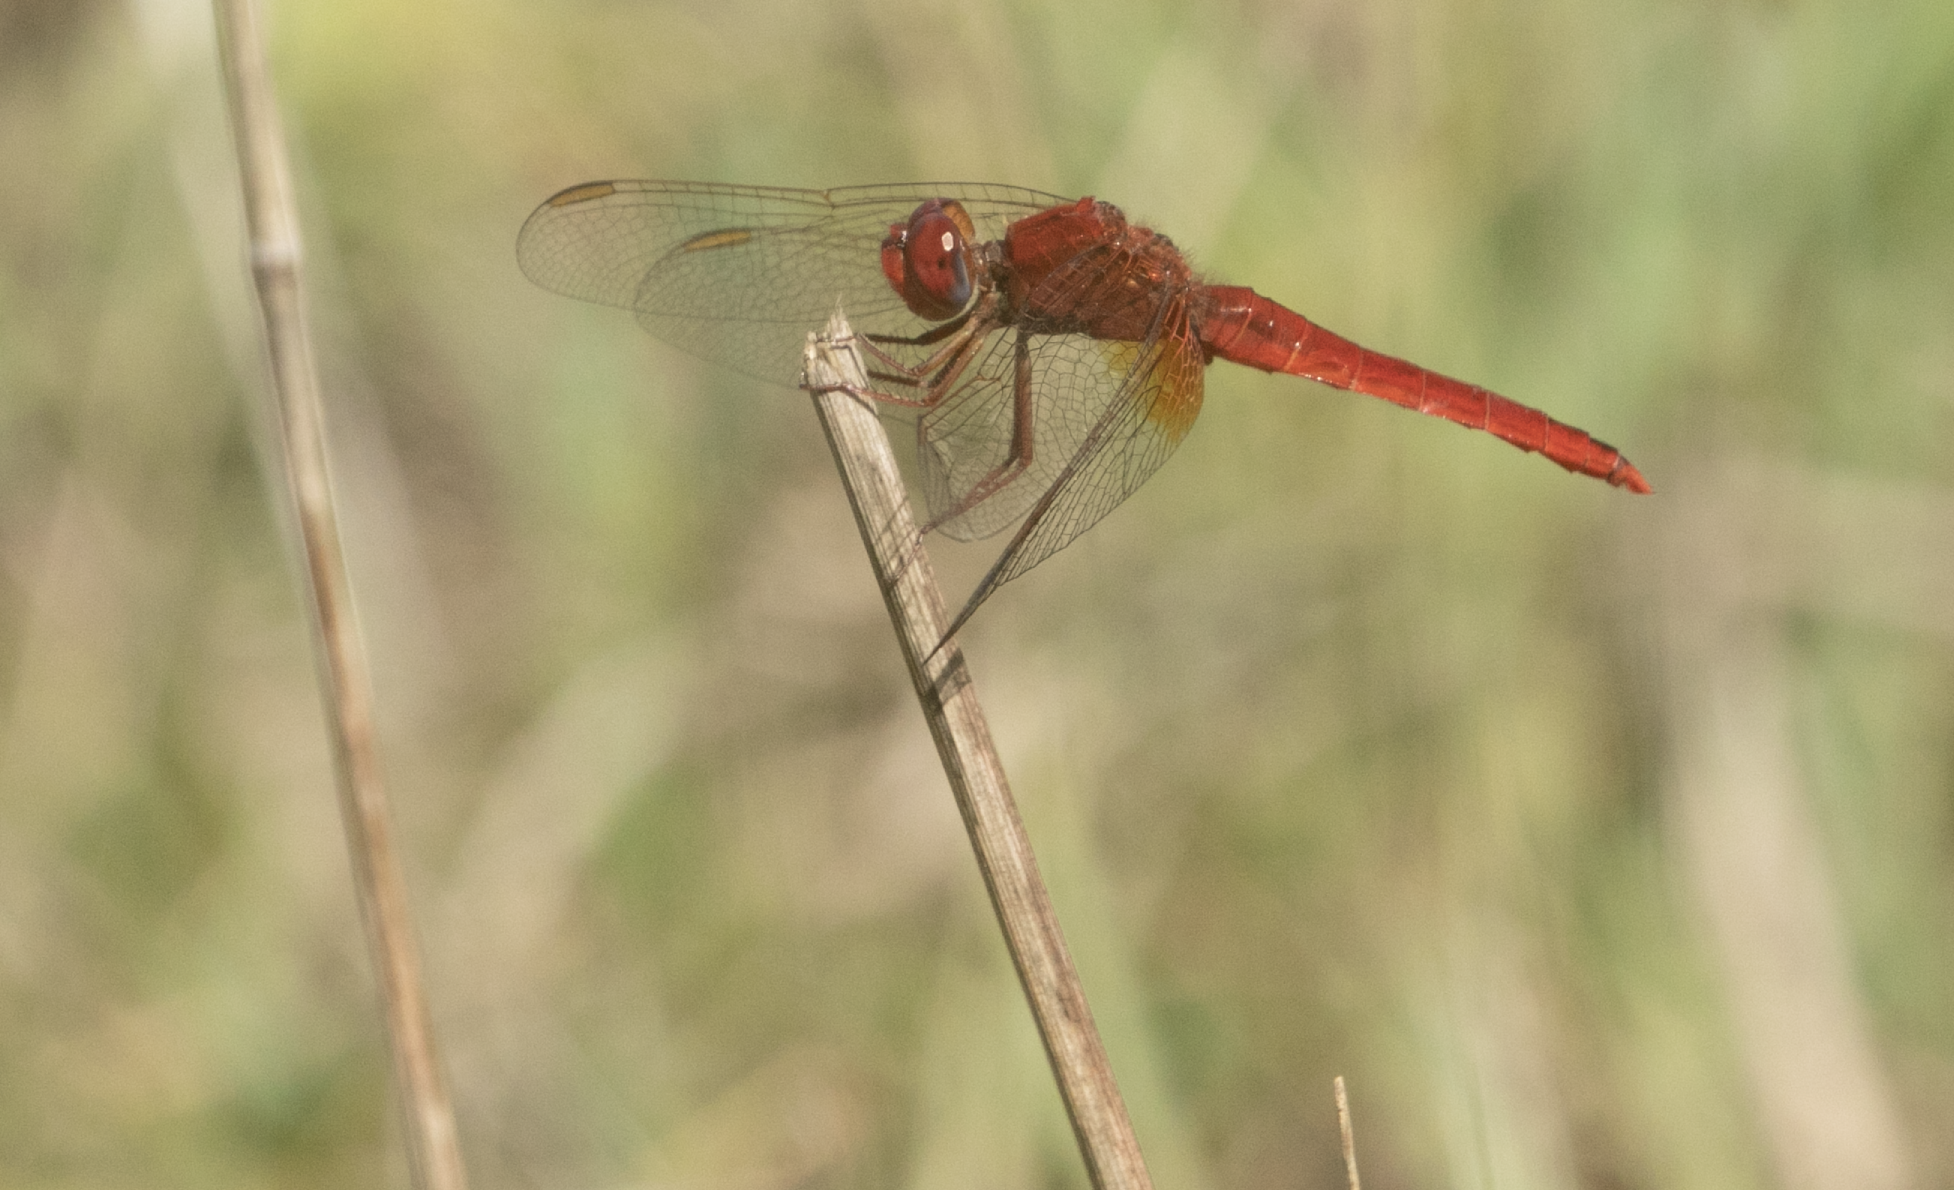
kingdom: Animalia
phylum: Arthropoda
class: Insecta
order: Odonata
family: Libellulidae
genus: Crocothemis
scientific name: Crocothemis erythraea
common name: Scarlet dragonfly
